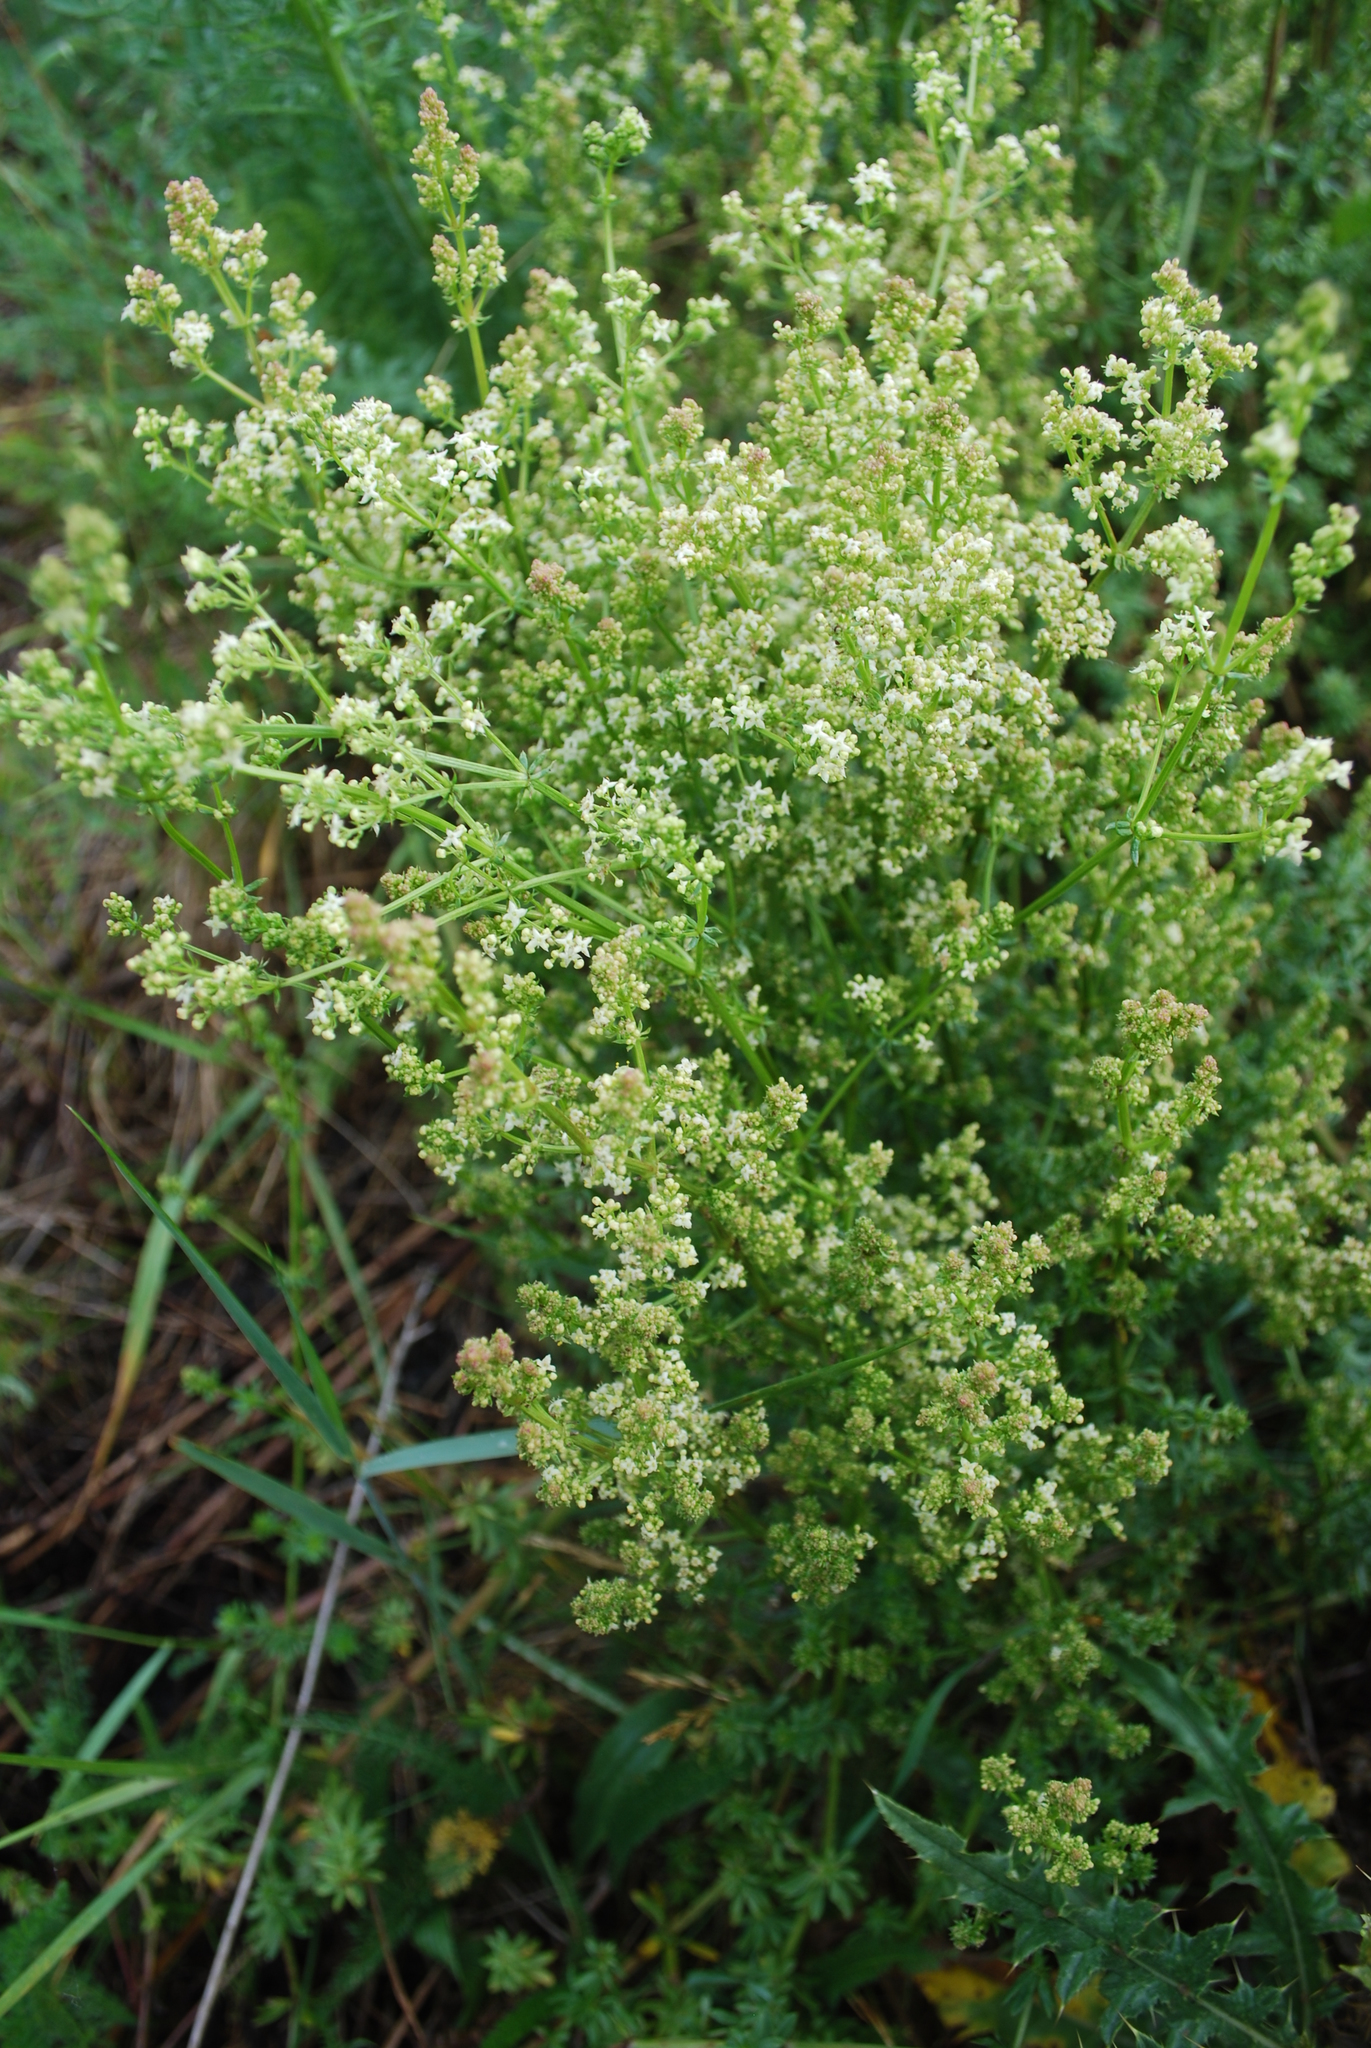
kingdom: Plantae
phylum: Tracheophyta
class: Magnoliopsida
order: Gentianales
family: Rubiaceae
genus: Galium
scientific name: Galium album
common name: White bedstraw
